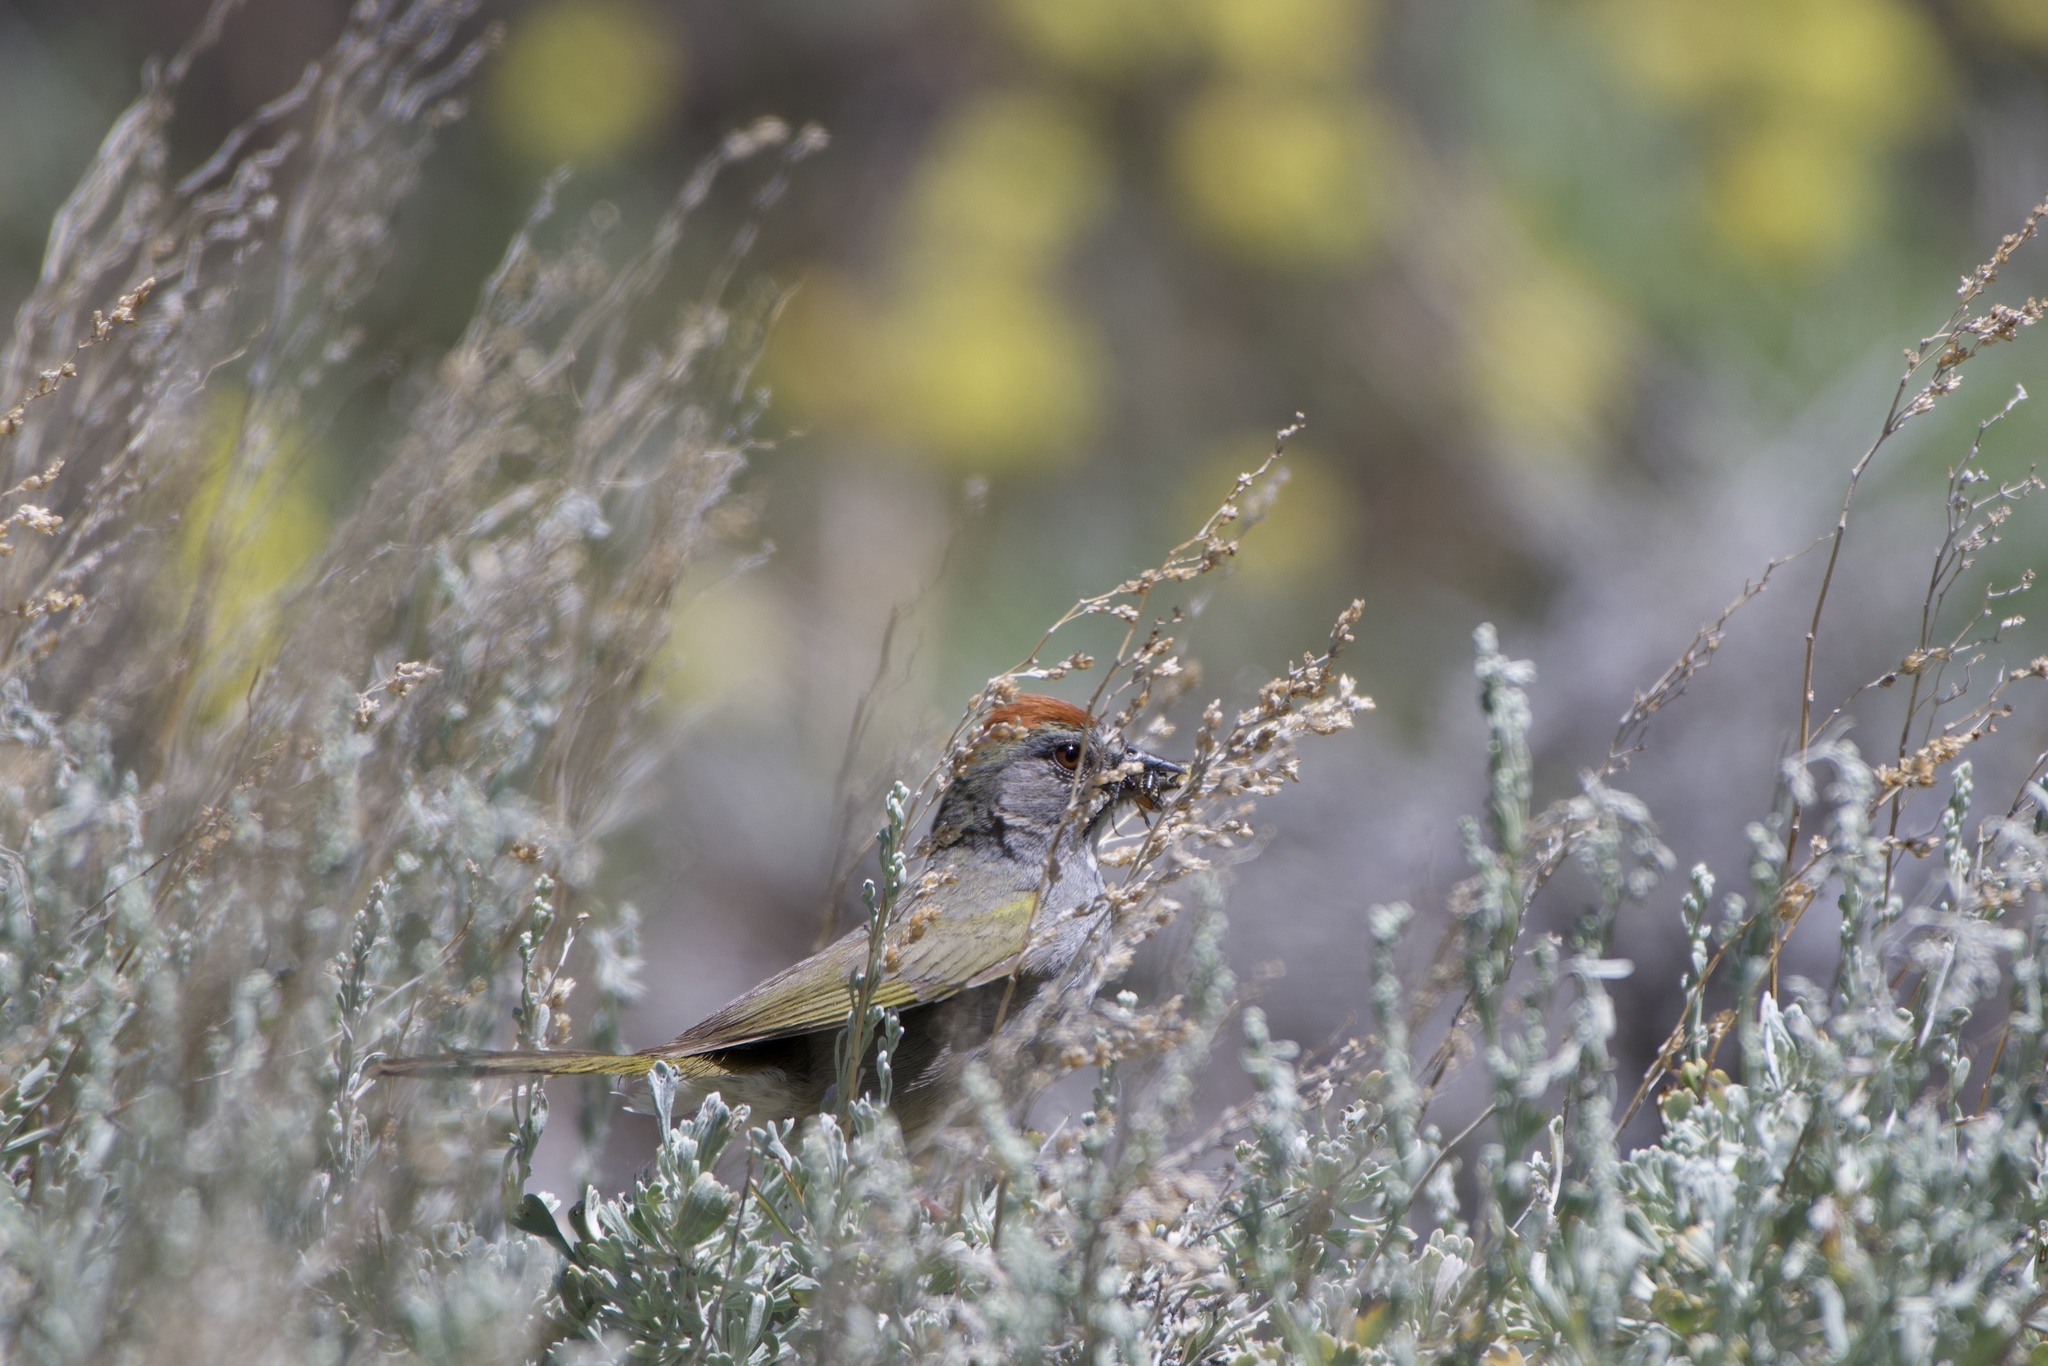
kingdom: Animalia
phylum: Chordata
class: Aves
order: Passeriformes
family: Passerellidae
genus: Pipilo
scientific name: Pipilo chlorurus
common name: Green-tailed towhee
